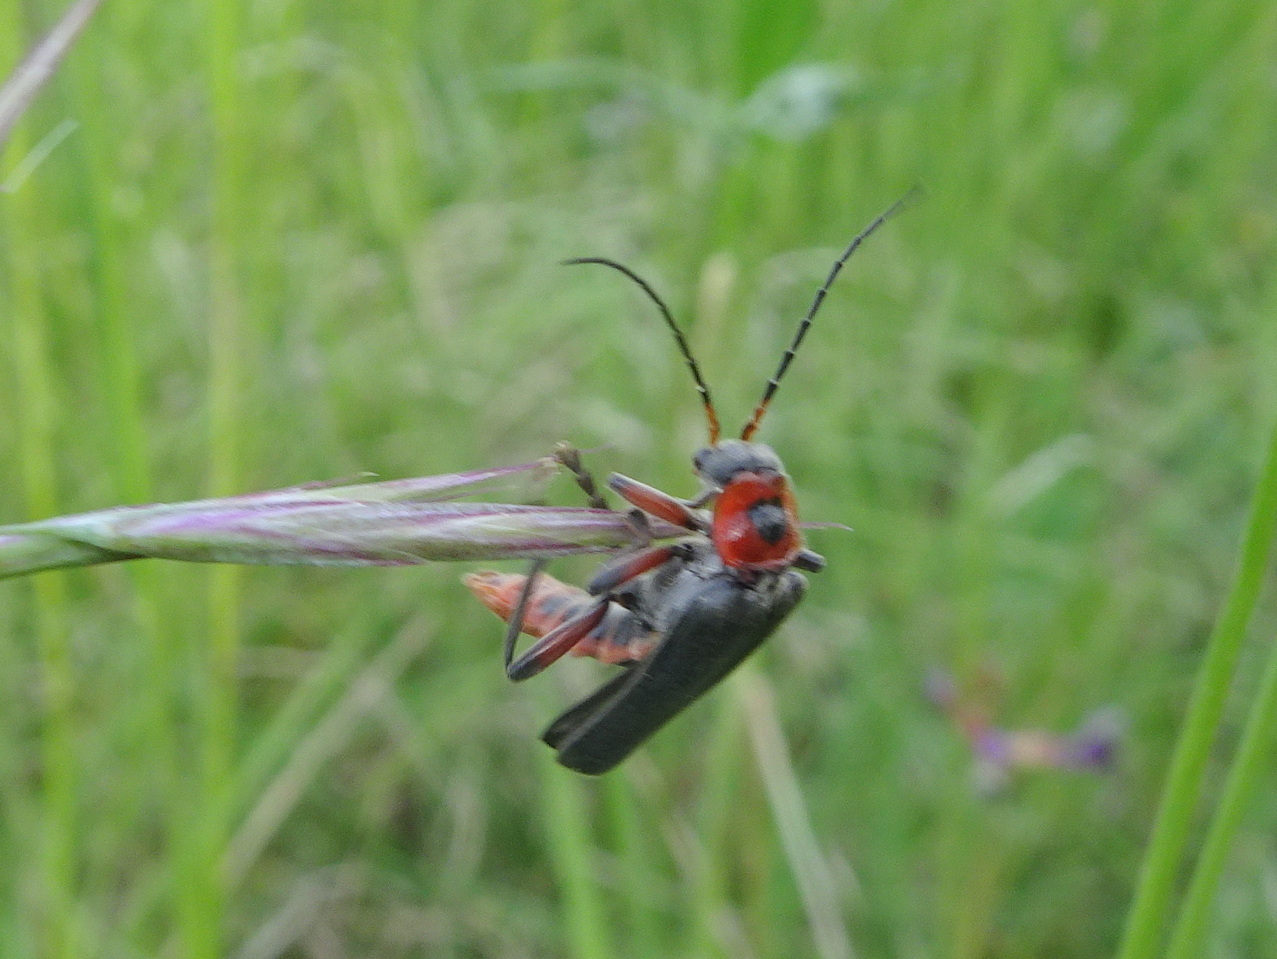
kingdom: Animalia
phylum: Arthropoda
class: Insecta
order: Coleoptera
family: Cantharidae
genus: Cantharis
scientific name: Cantharis rustica
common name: Soldier beetle
